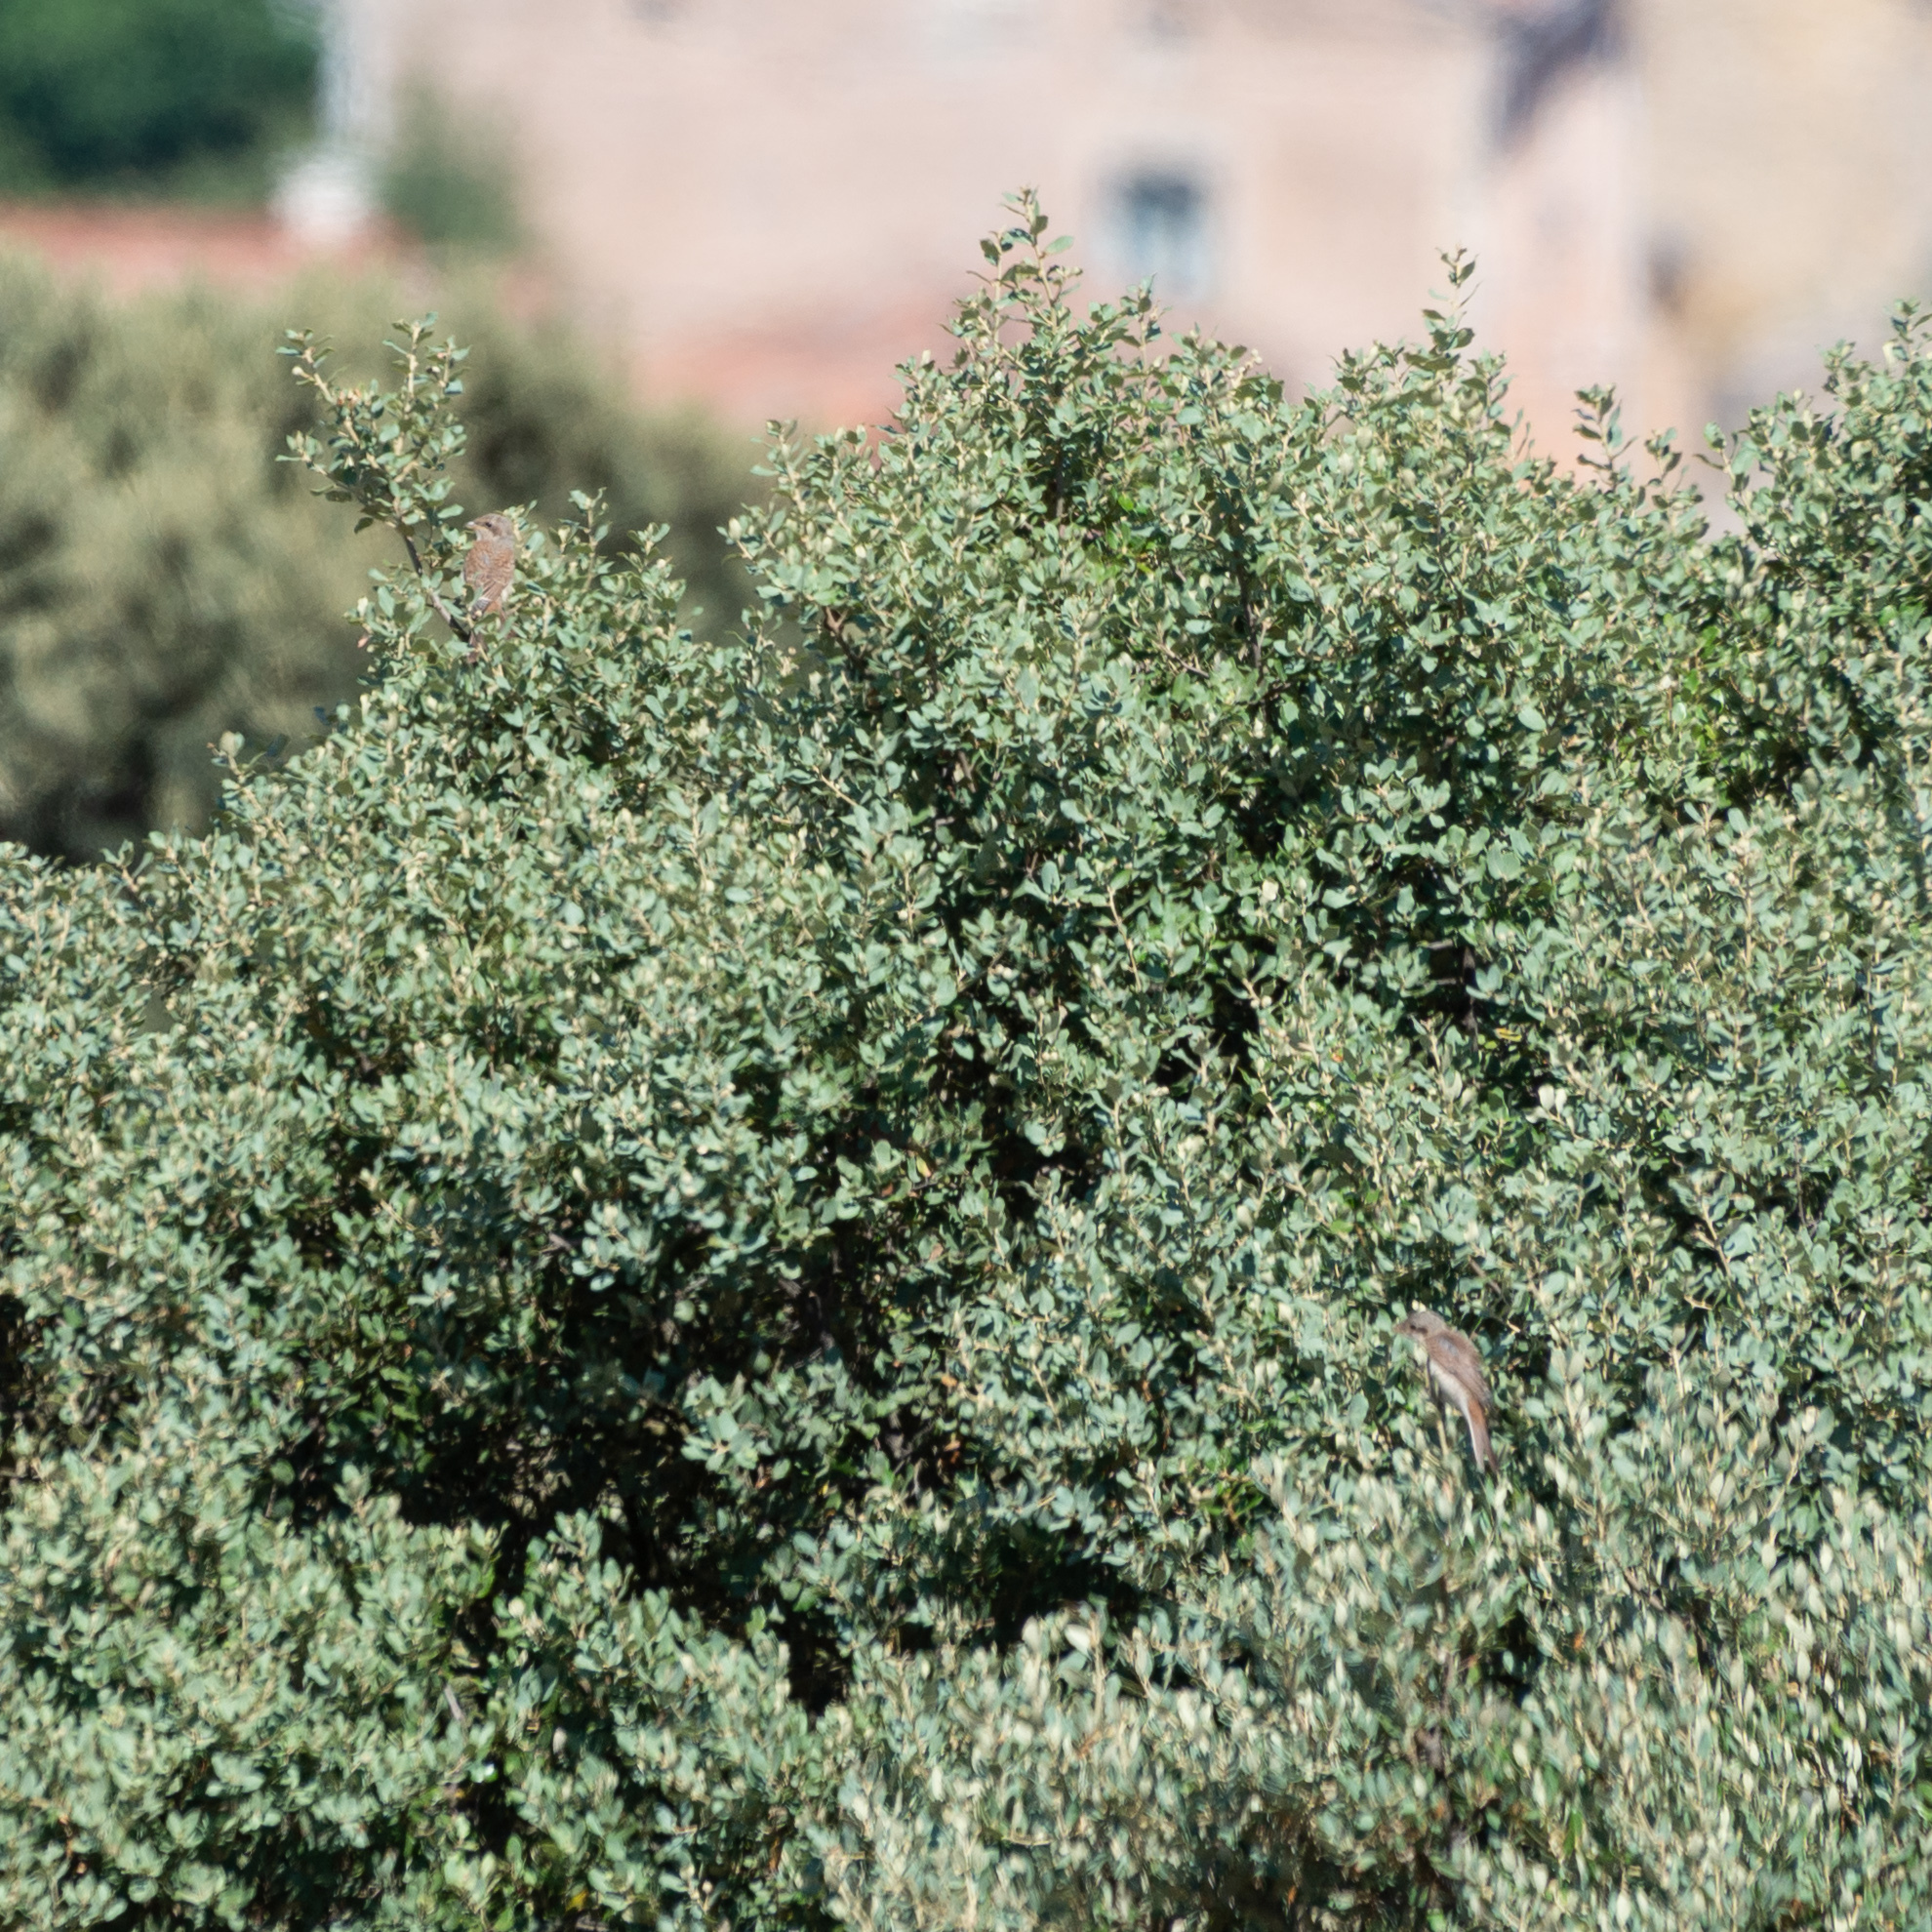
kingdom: Animalia
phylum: Chordata
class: Aves
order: Passeriformes
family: Laniidae
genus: Lanius
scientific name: Lanius collurio
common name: Red-backed shrike
